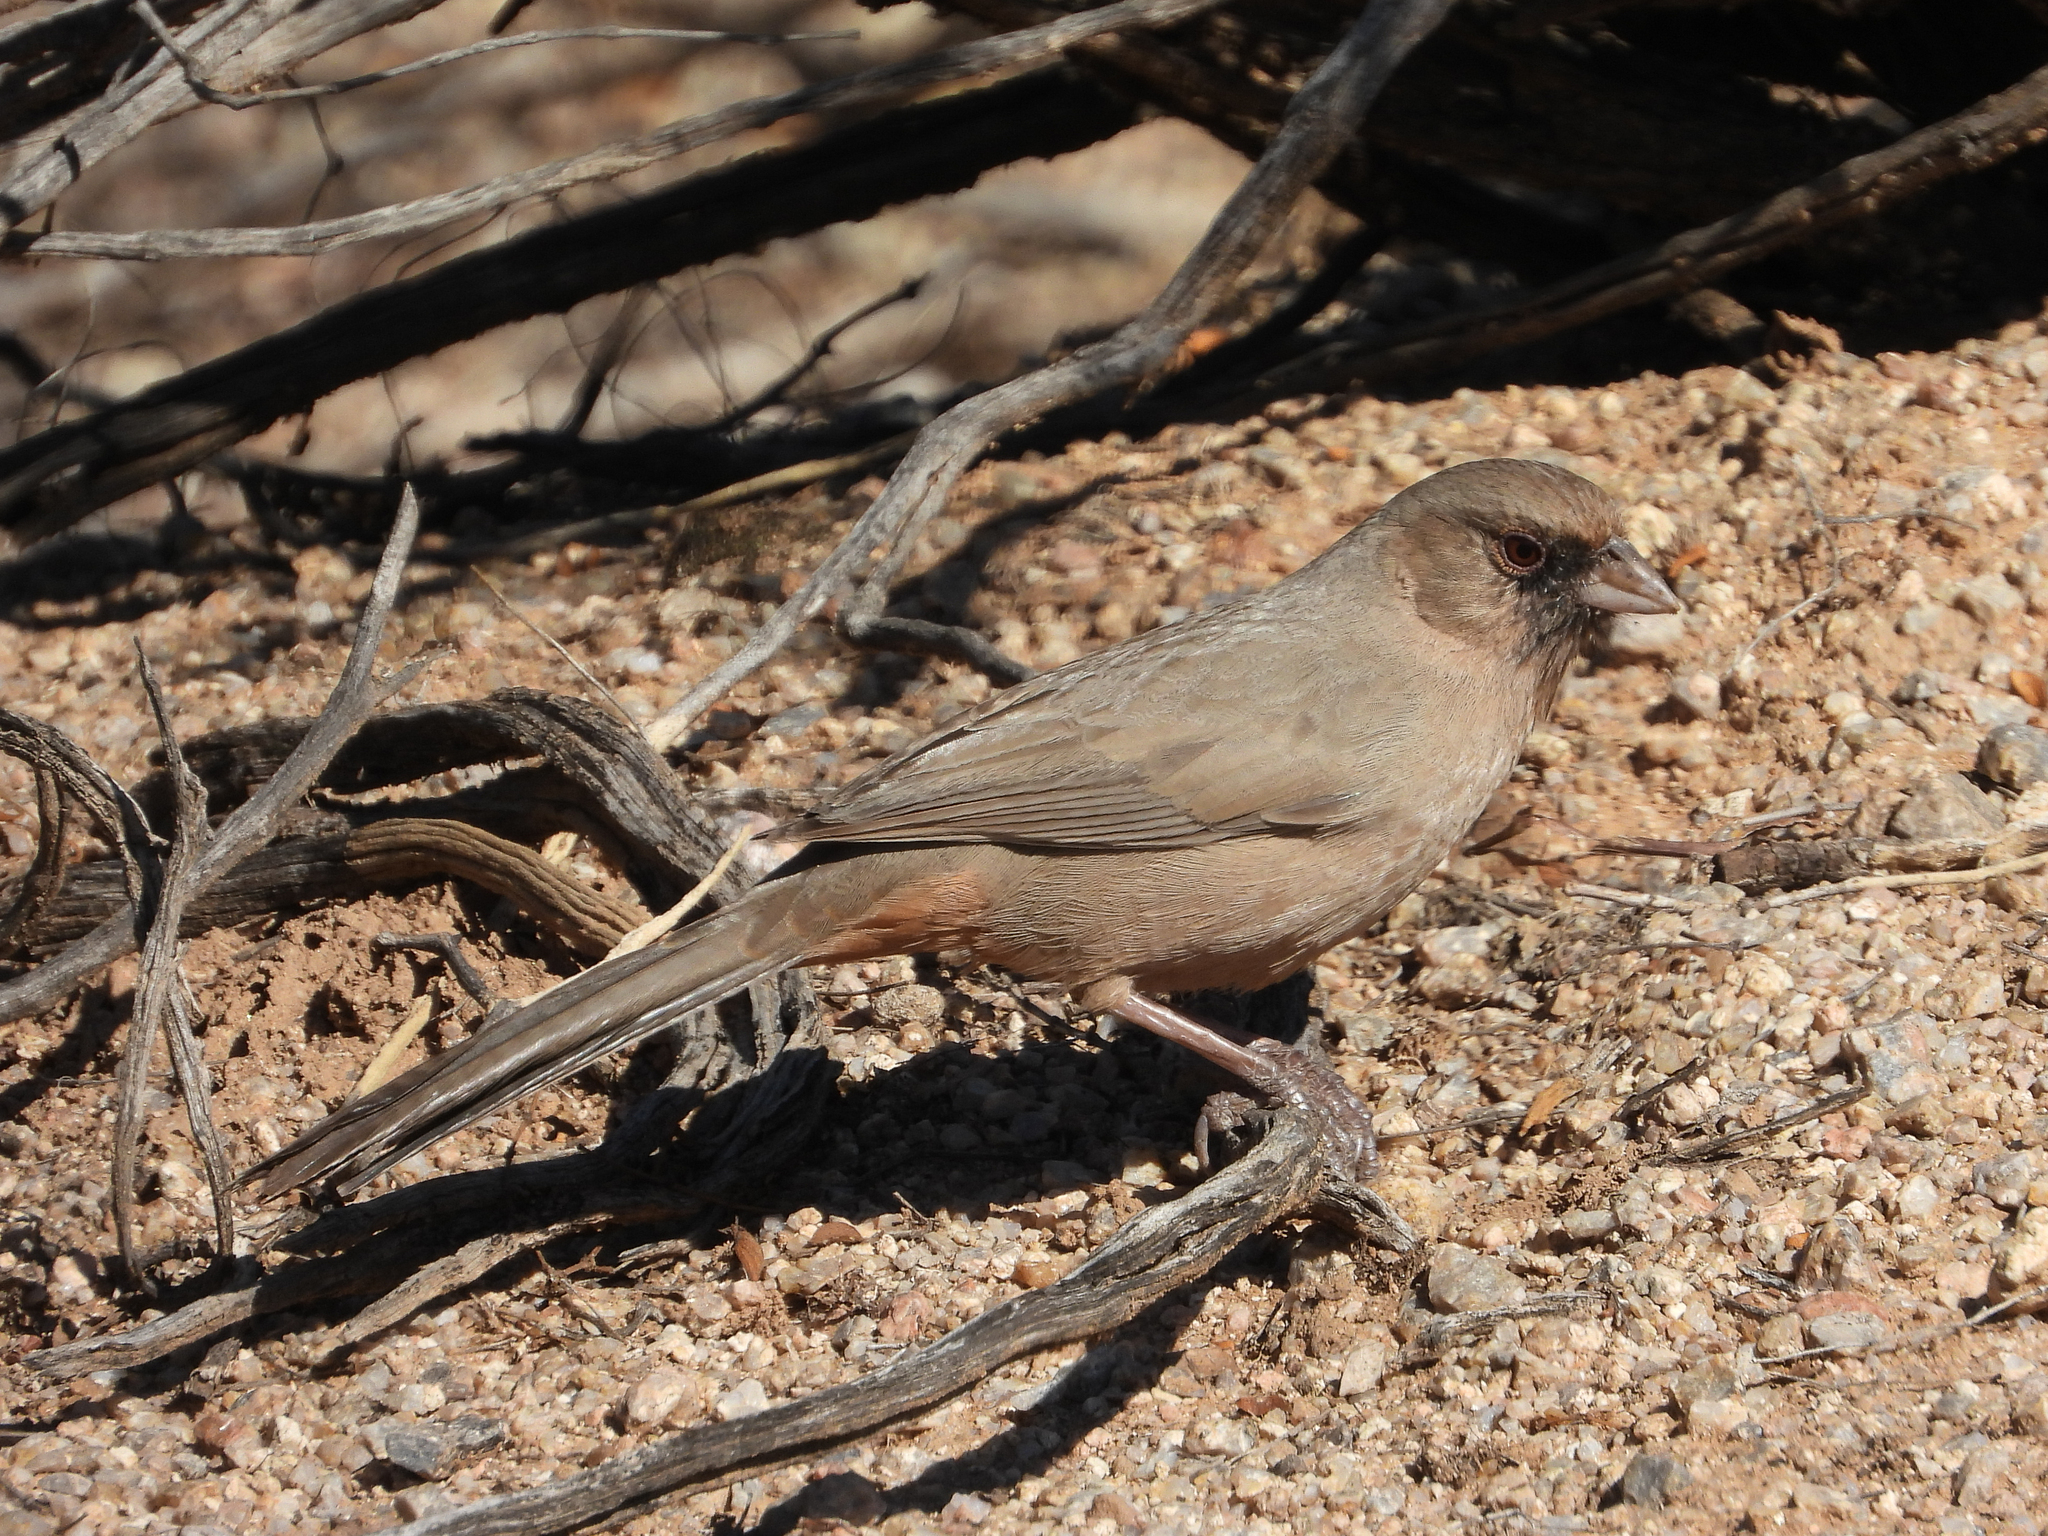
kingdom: Animalia
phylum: Chordata
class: Aves
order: Passeriformes
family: Passerellidae
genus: Melozone
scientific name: Melozone aberti
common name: Abert's towhee
